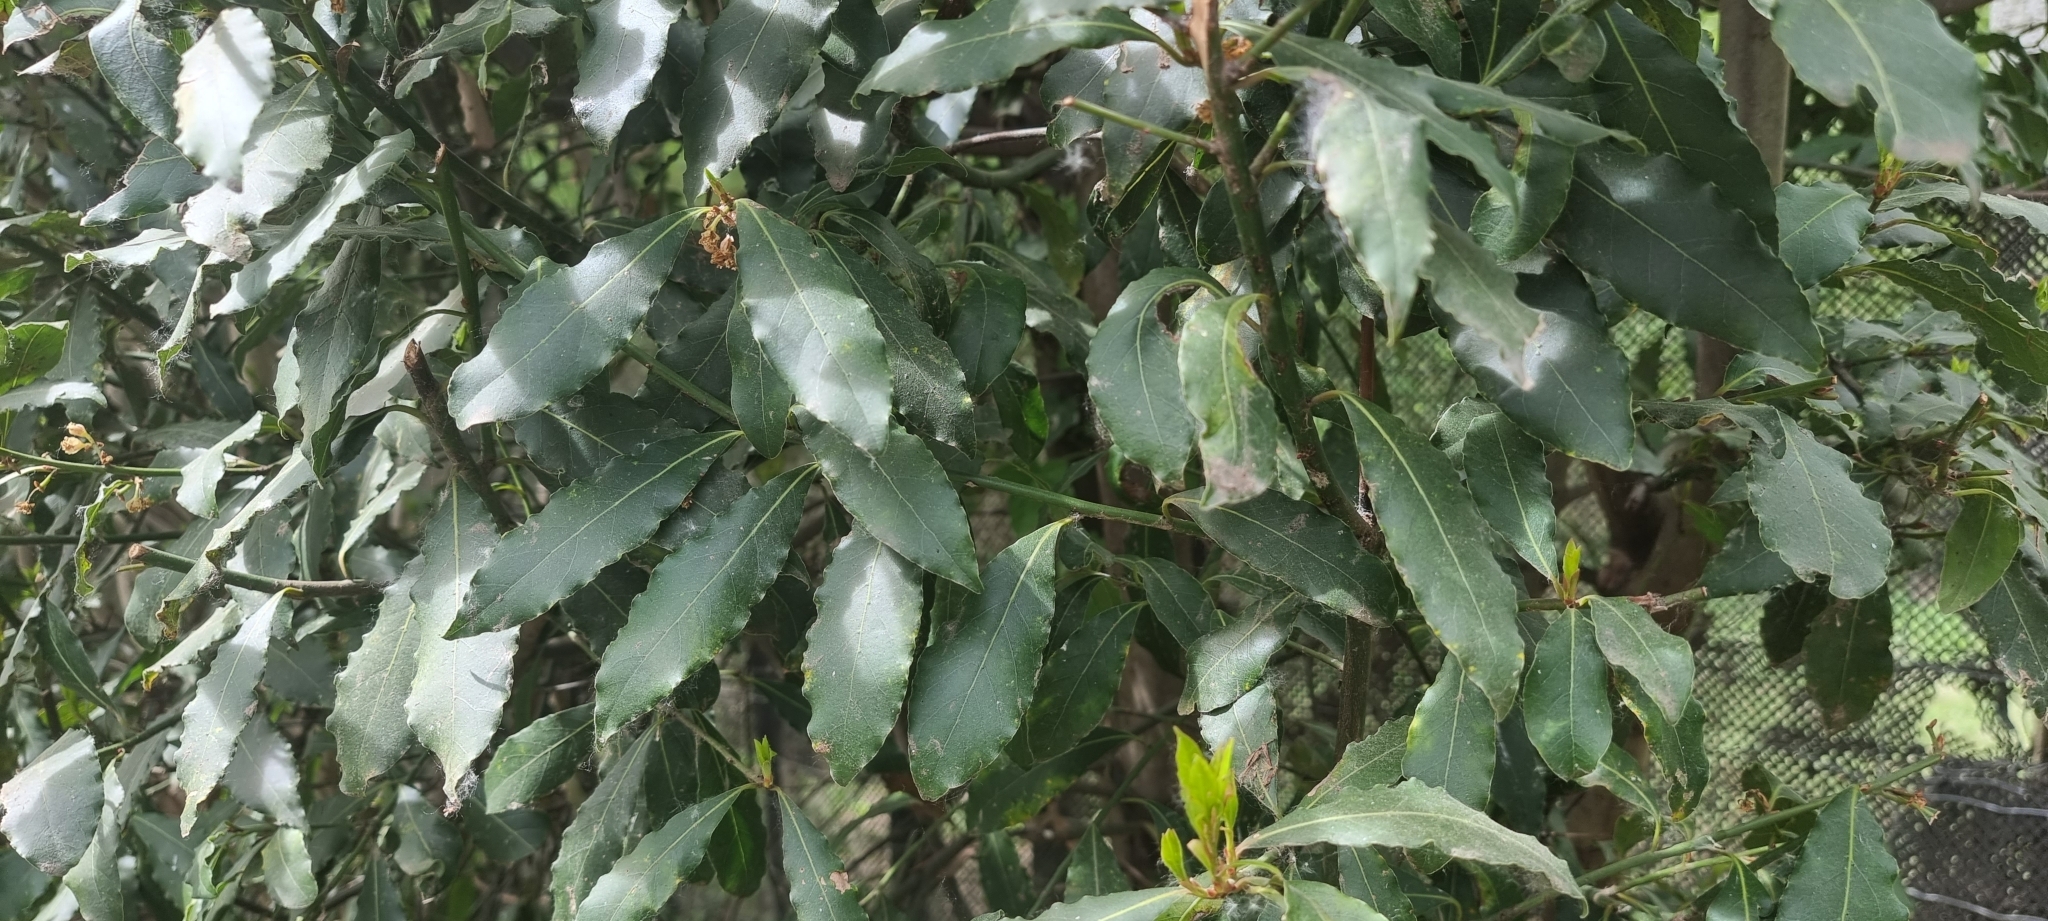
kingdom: Plantae
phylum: Tracheophyta
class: Magnoliopsida
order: Laurales
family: Lauraceae
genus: Laurus
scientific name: Laurus nobilis
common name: Bay
